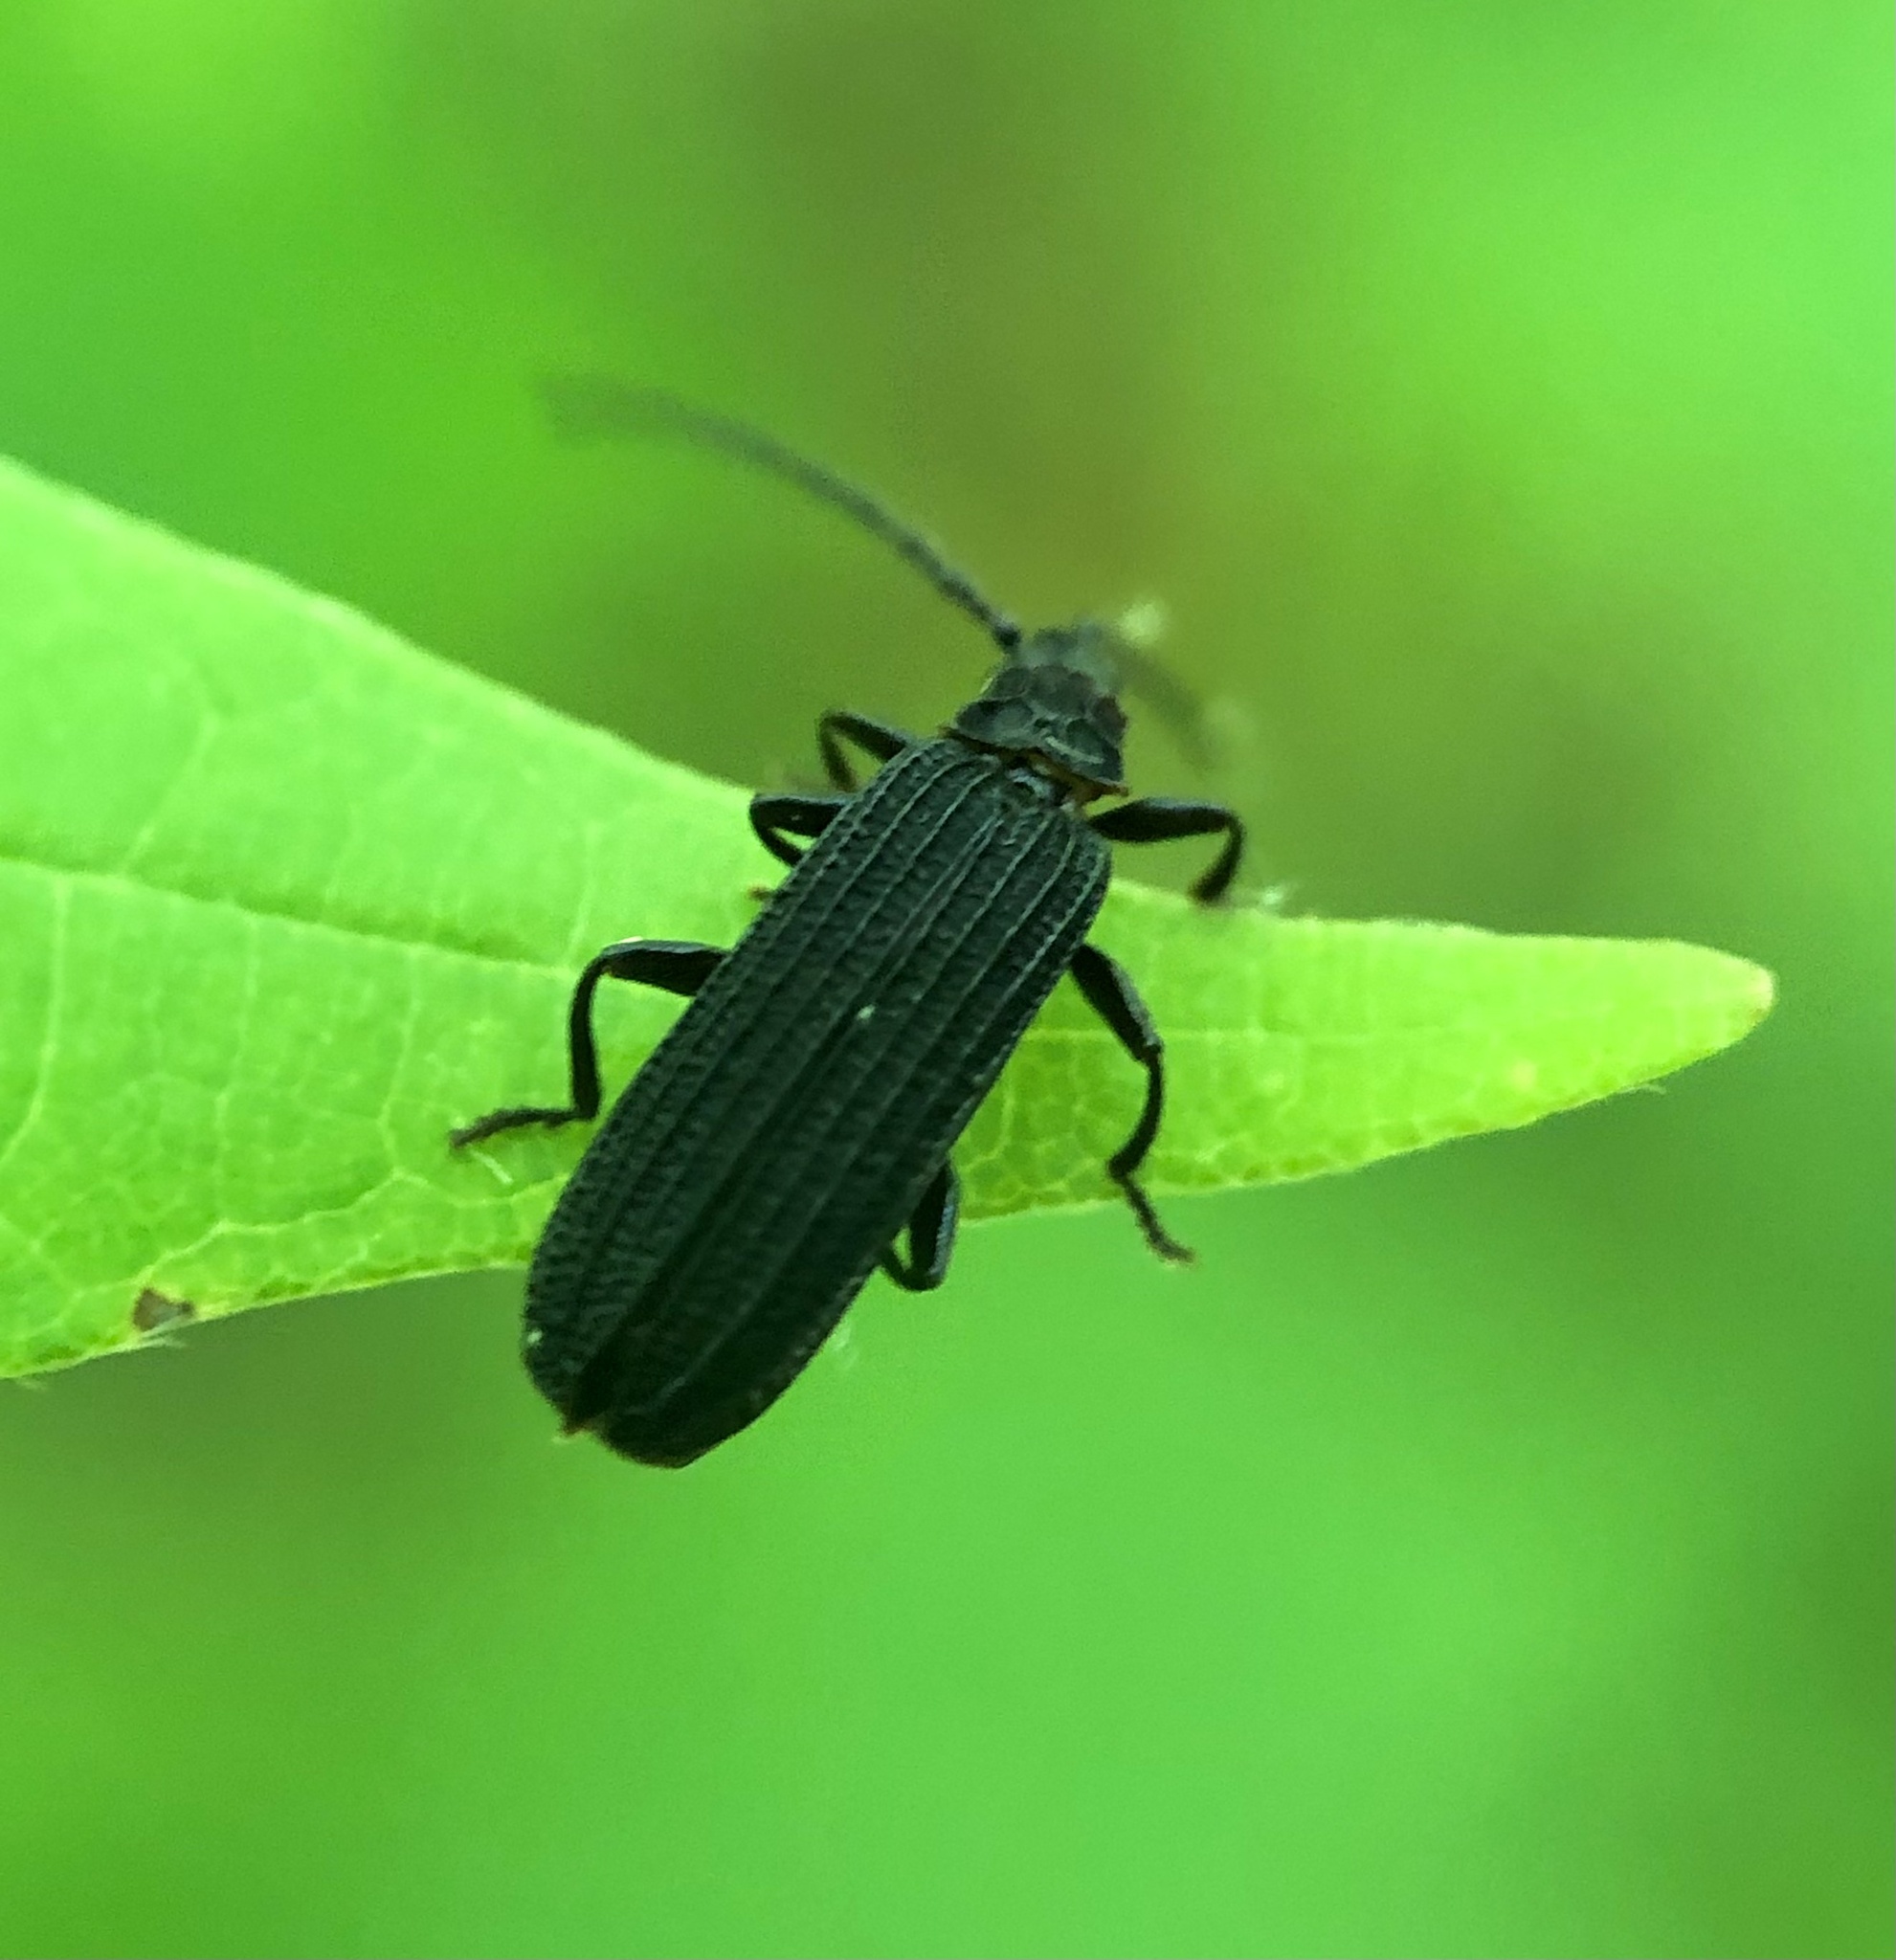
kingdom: Animalia
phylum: Arthropoda
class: Insecta
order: Coleoptera
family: Lycidae
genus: Erotides
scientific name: Erotides sculptilis
